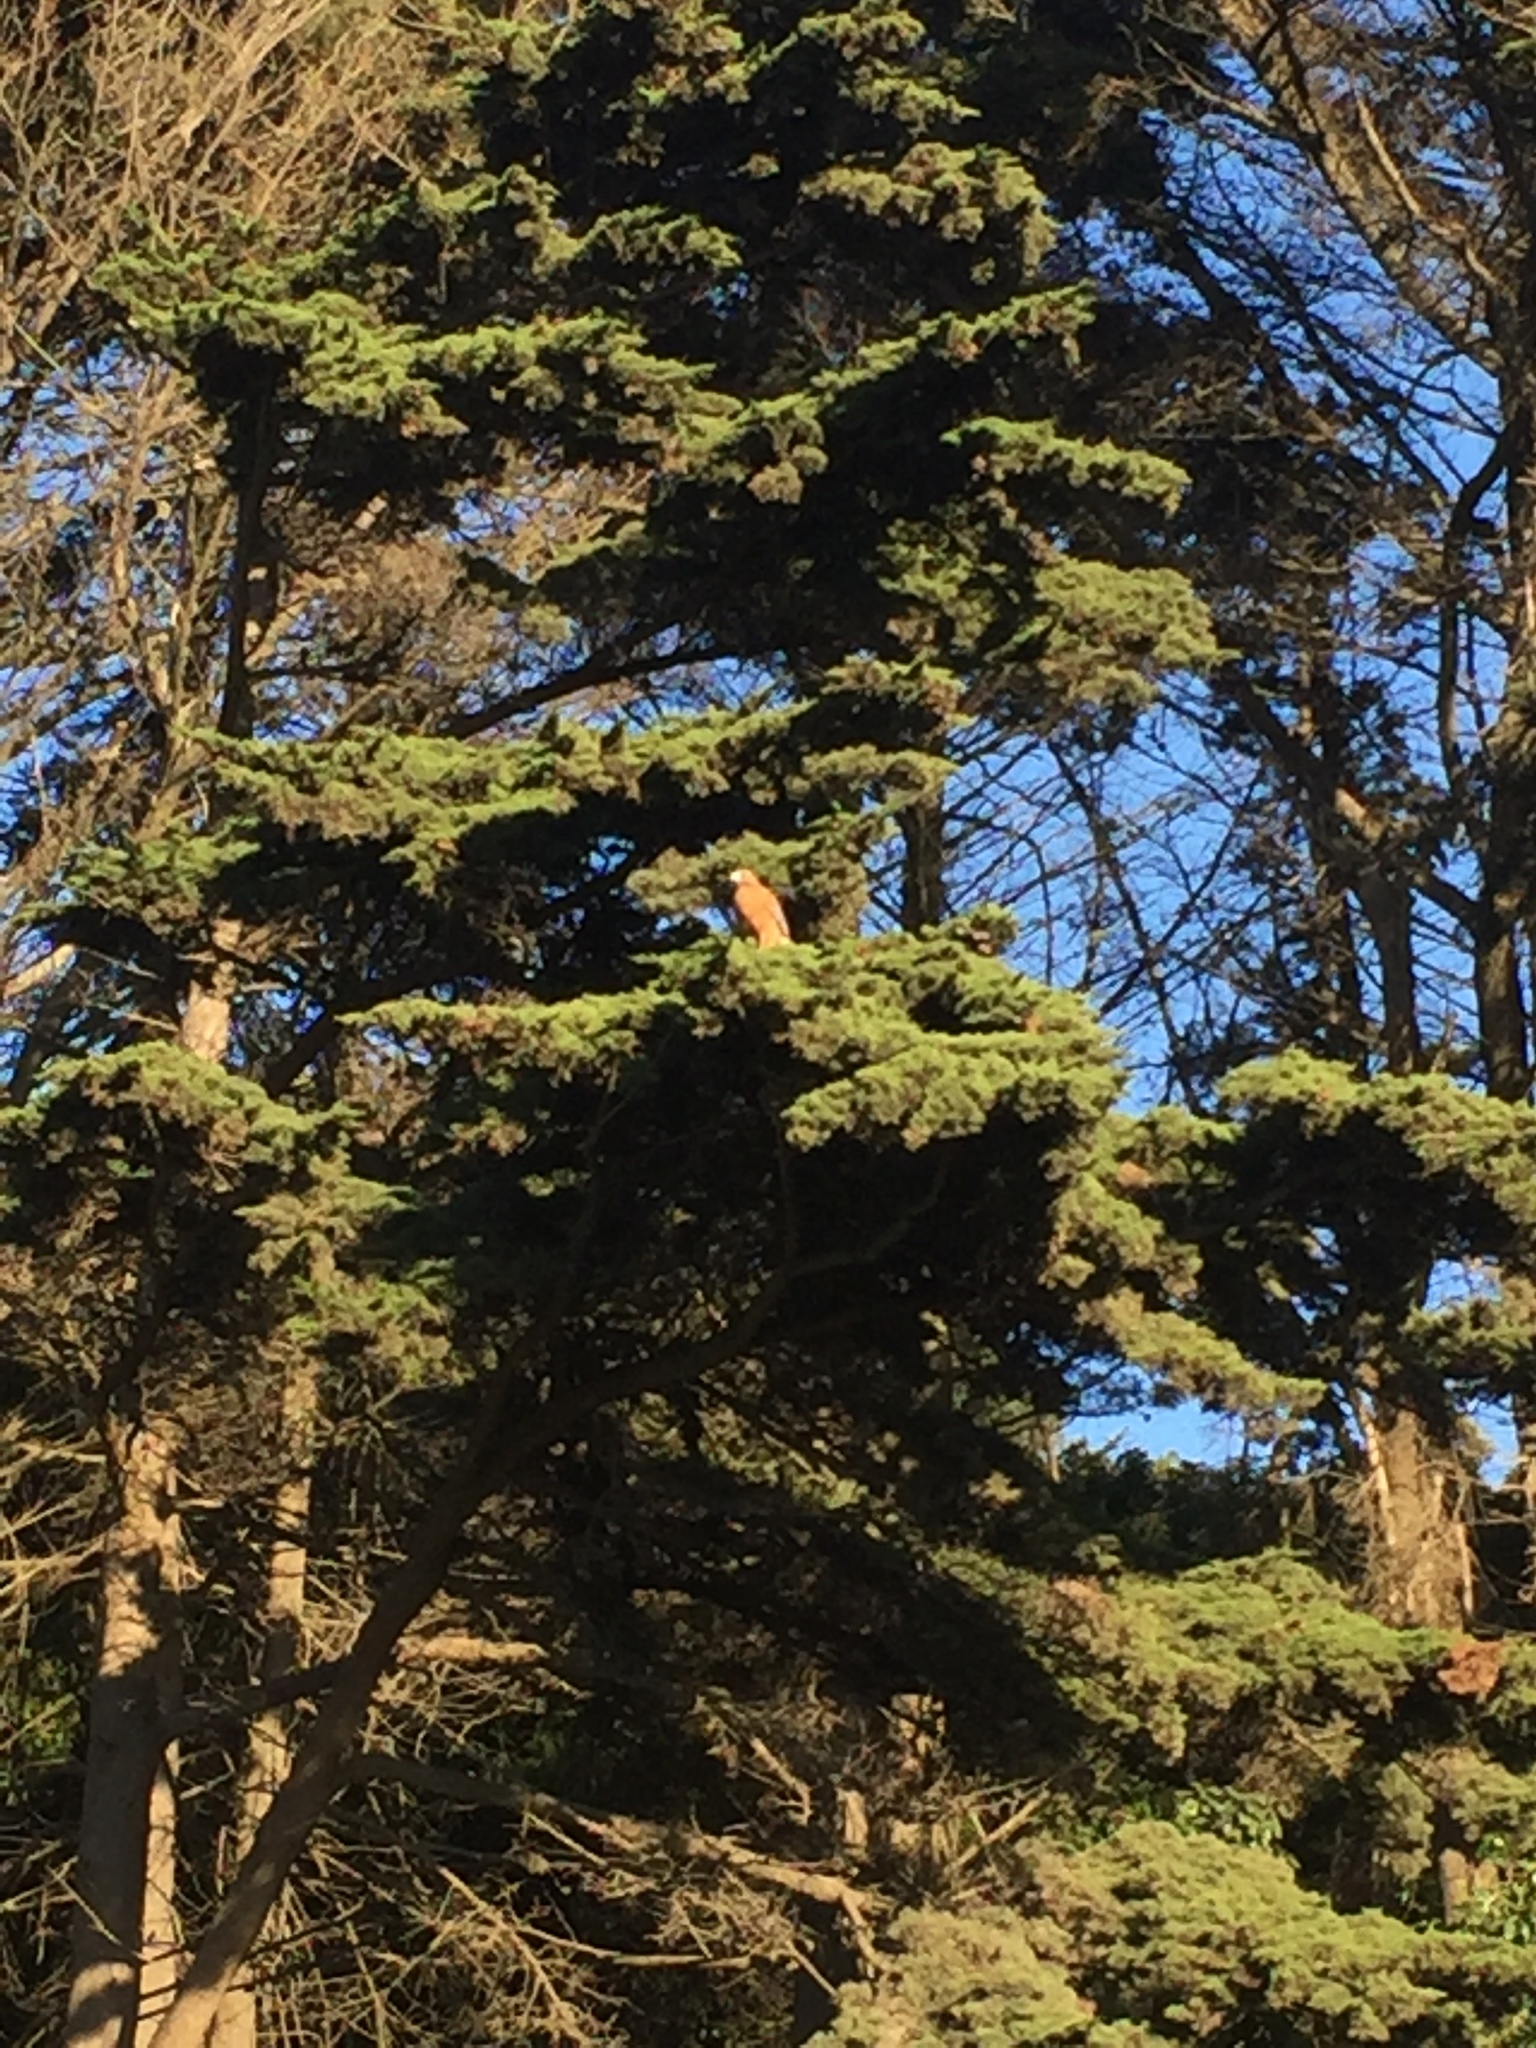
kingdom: Animalia
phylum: Chordata
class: Aves
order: Accipitriformes
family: Accipitridae
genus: Buteo
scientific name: Buteo jamaicensis
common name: Red-tailed hawk
